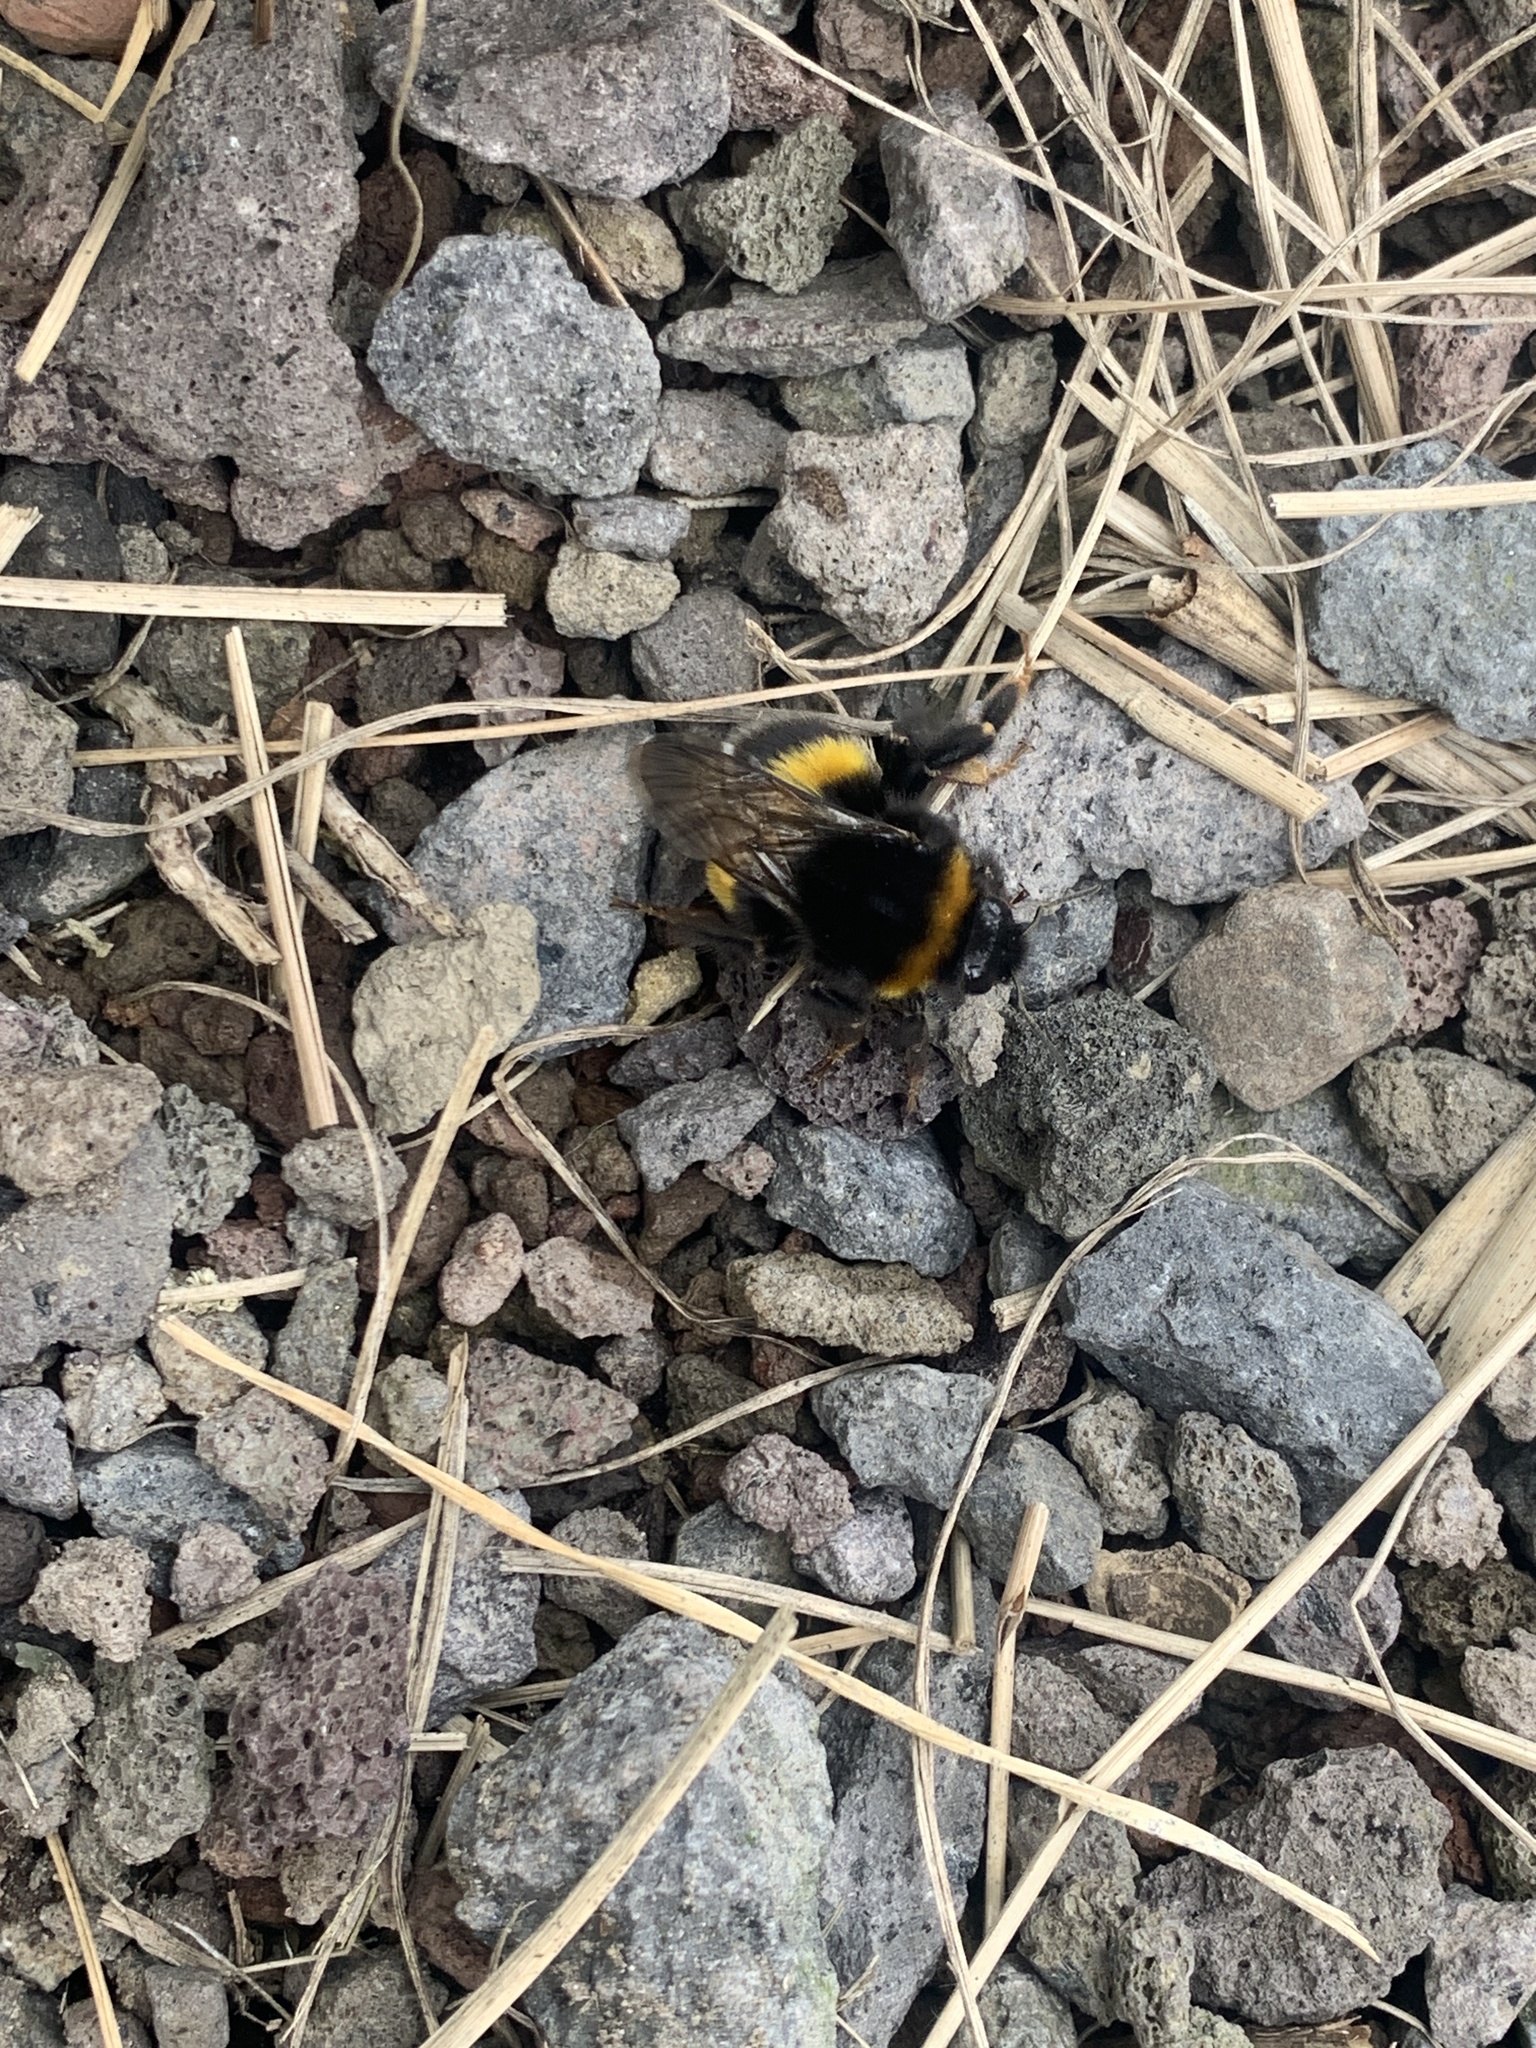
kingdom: Animalia
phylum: Arthropoda
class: Insecta
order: Hymenoptera
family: Apidae
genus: Bombus
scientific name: Bombus terrestris
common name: Buff-tailed bumblebee
